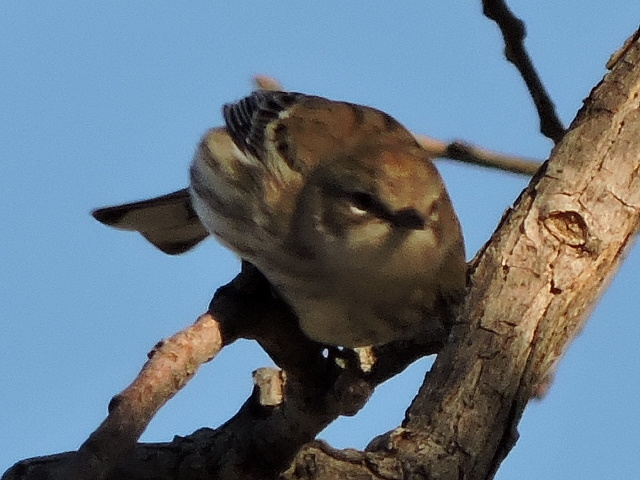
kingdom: Animalia
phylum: Chordata
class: Aves
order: Passeriformes
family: Parulidae
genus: Setophaga
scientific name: Setophaga coronata
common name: Myrtle warbler
